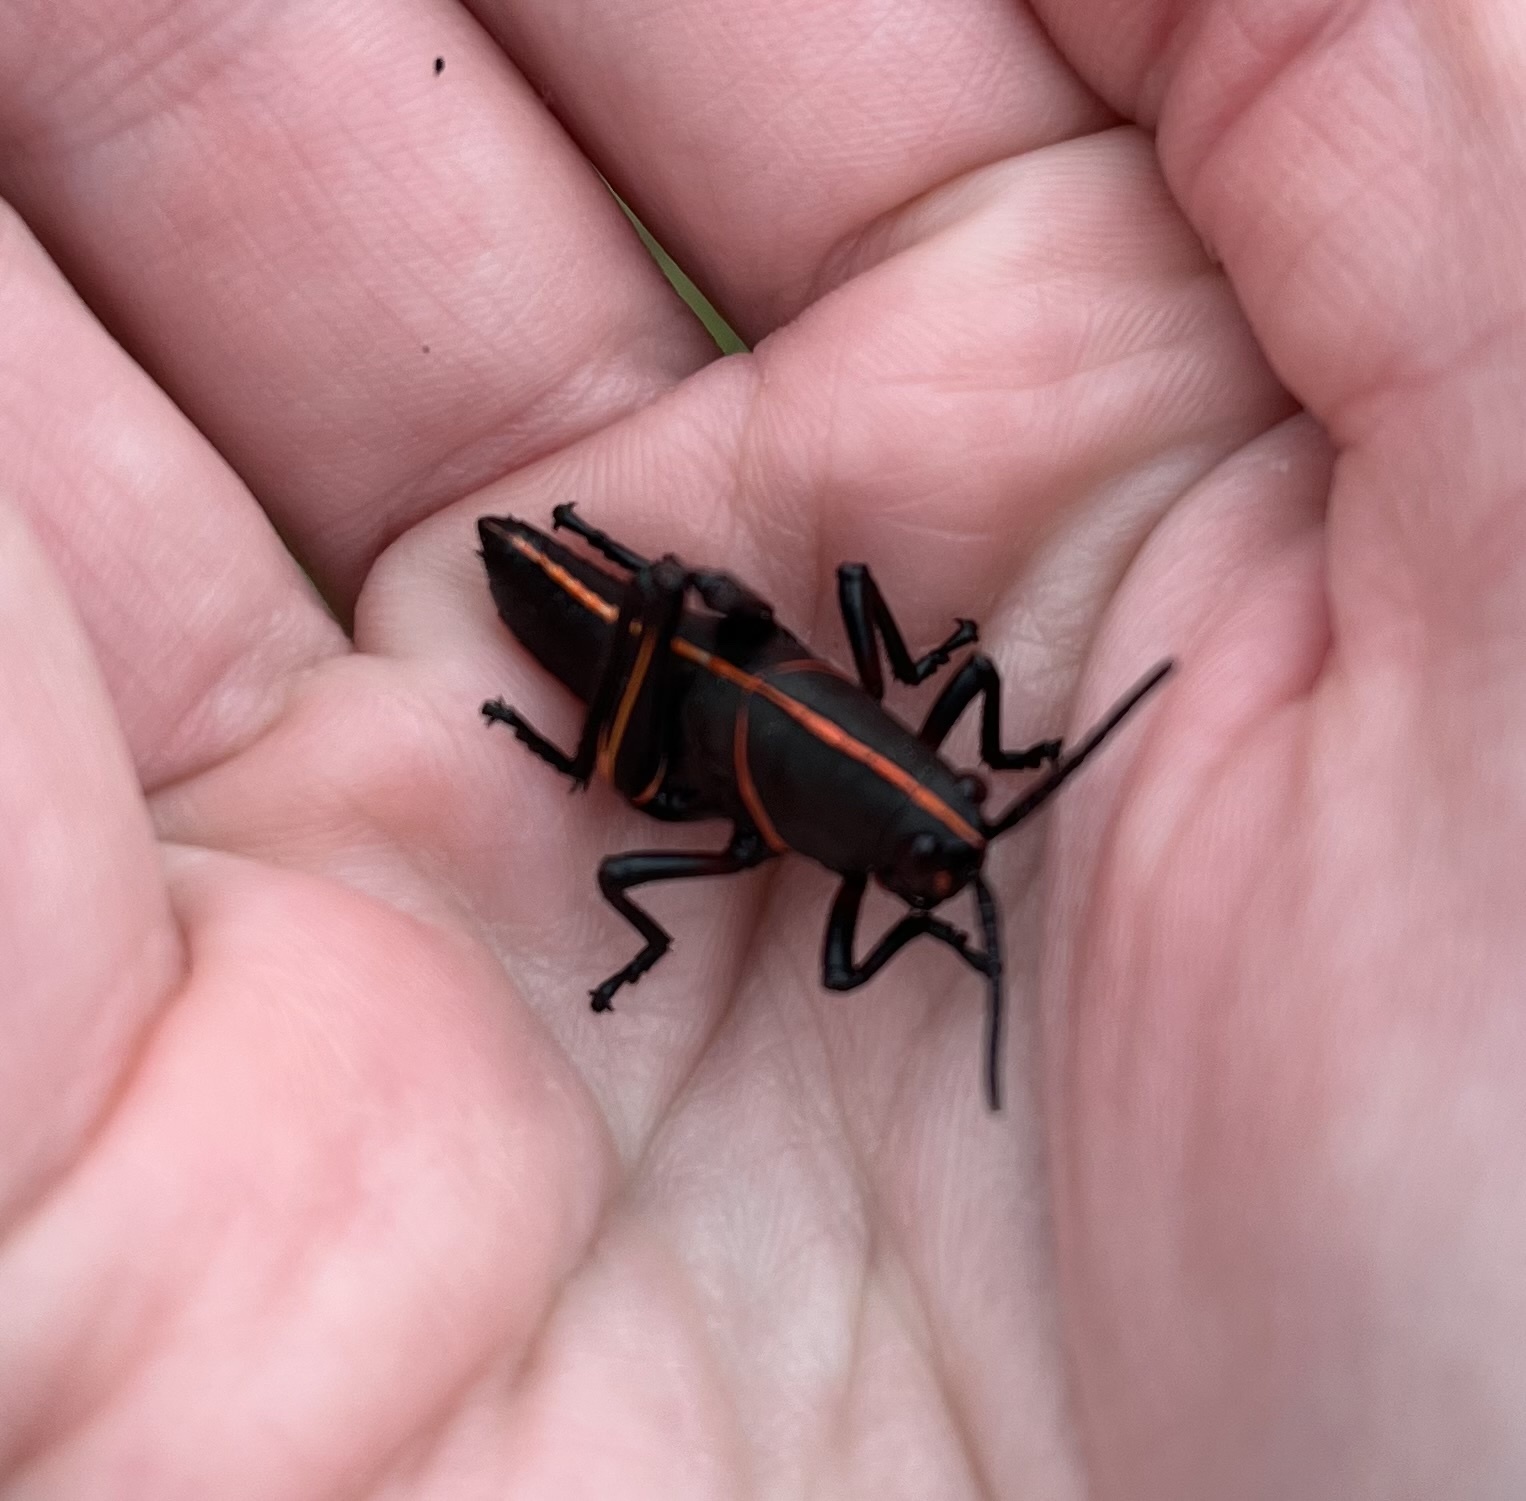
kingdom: Animalia
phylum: Arthropoda
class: Insecta
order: Orthoptera
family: Romaleidae
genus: Romalea
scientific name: Romalea microptera
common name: Eastern lubber grasshopper
